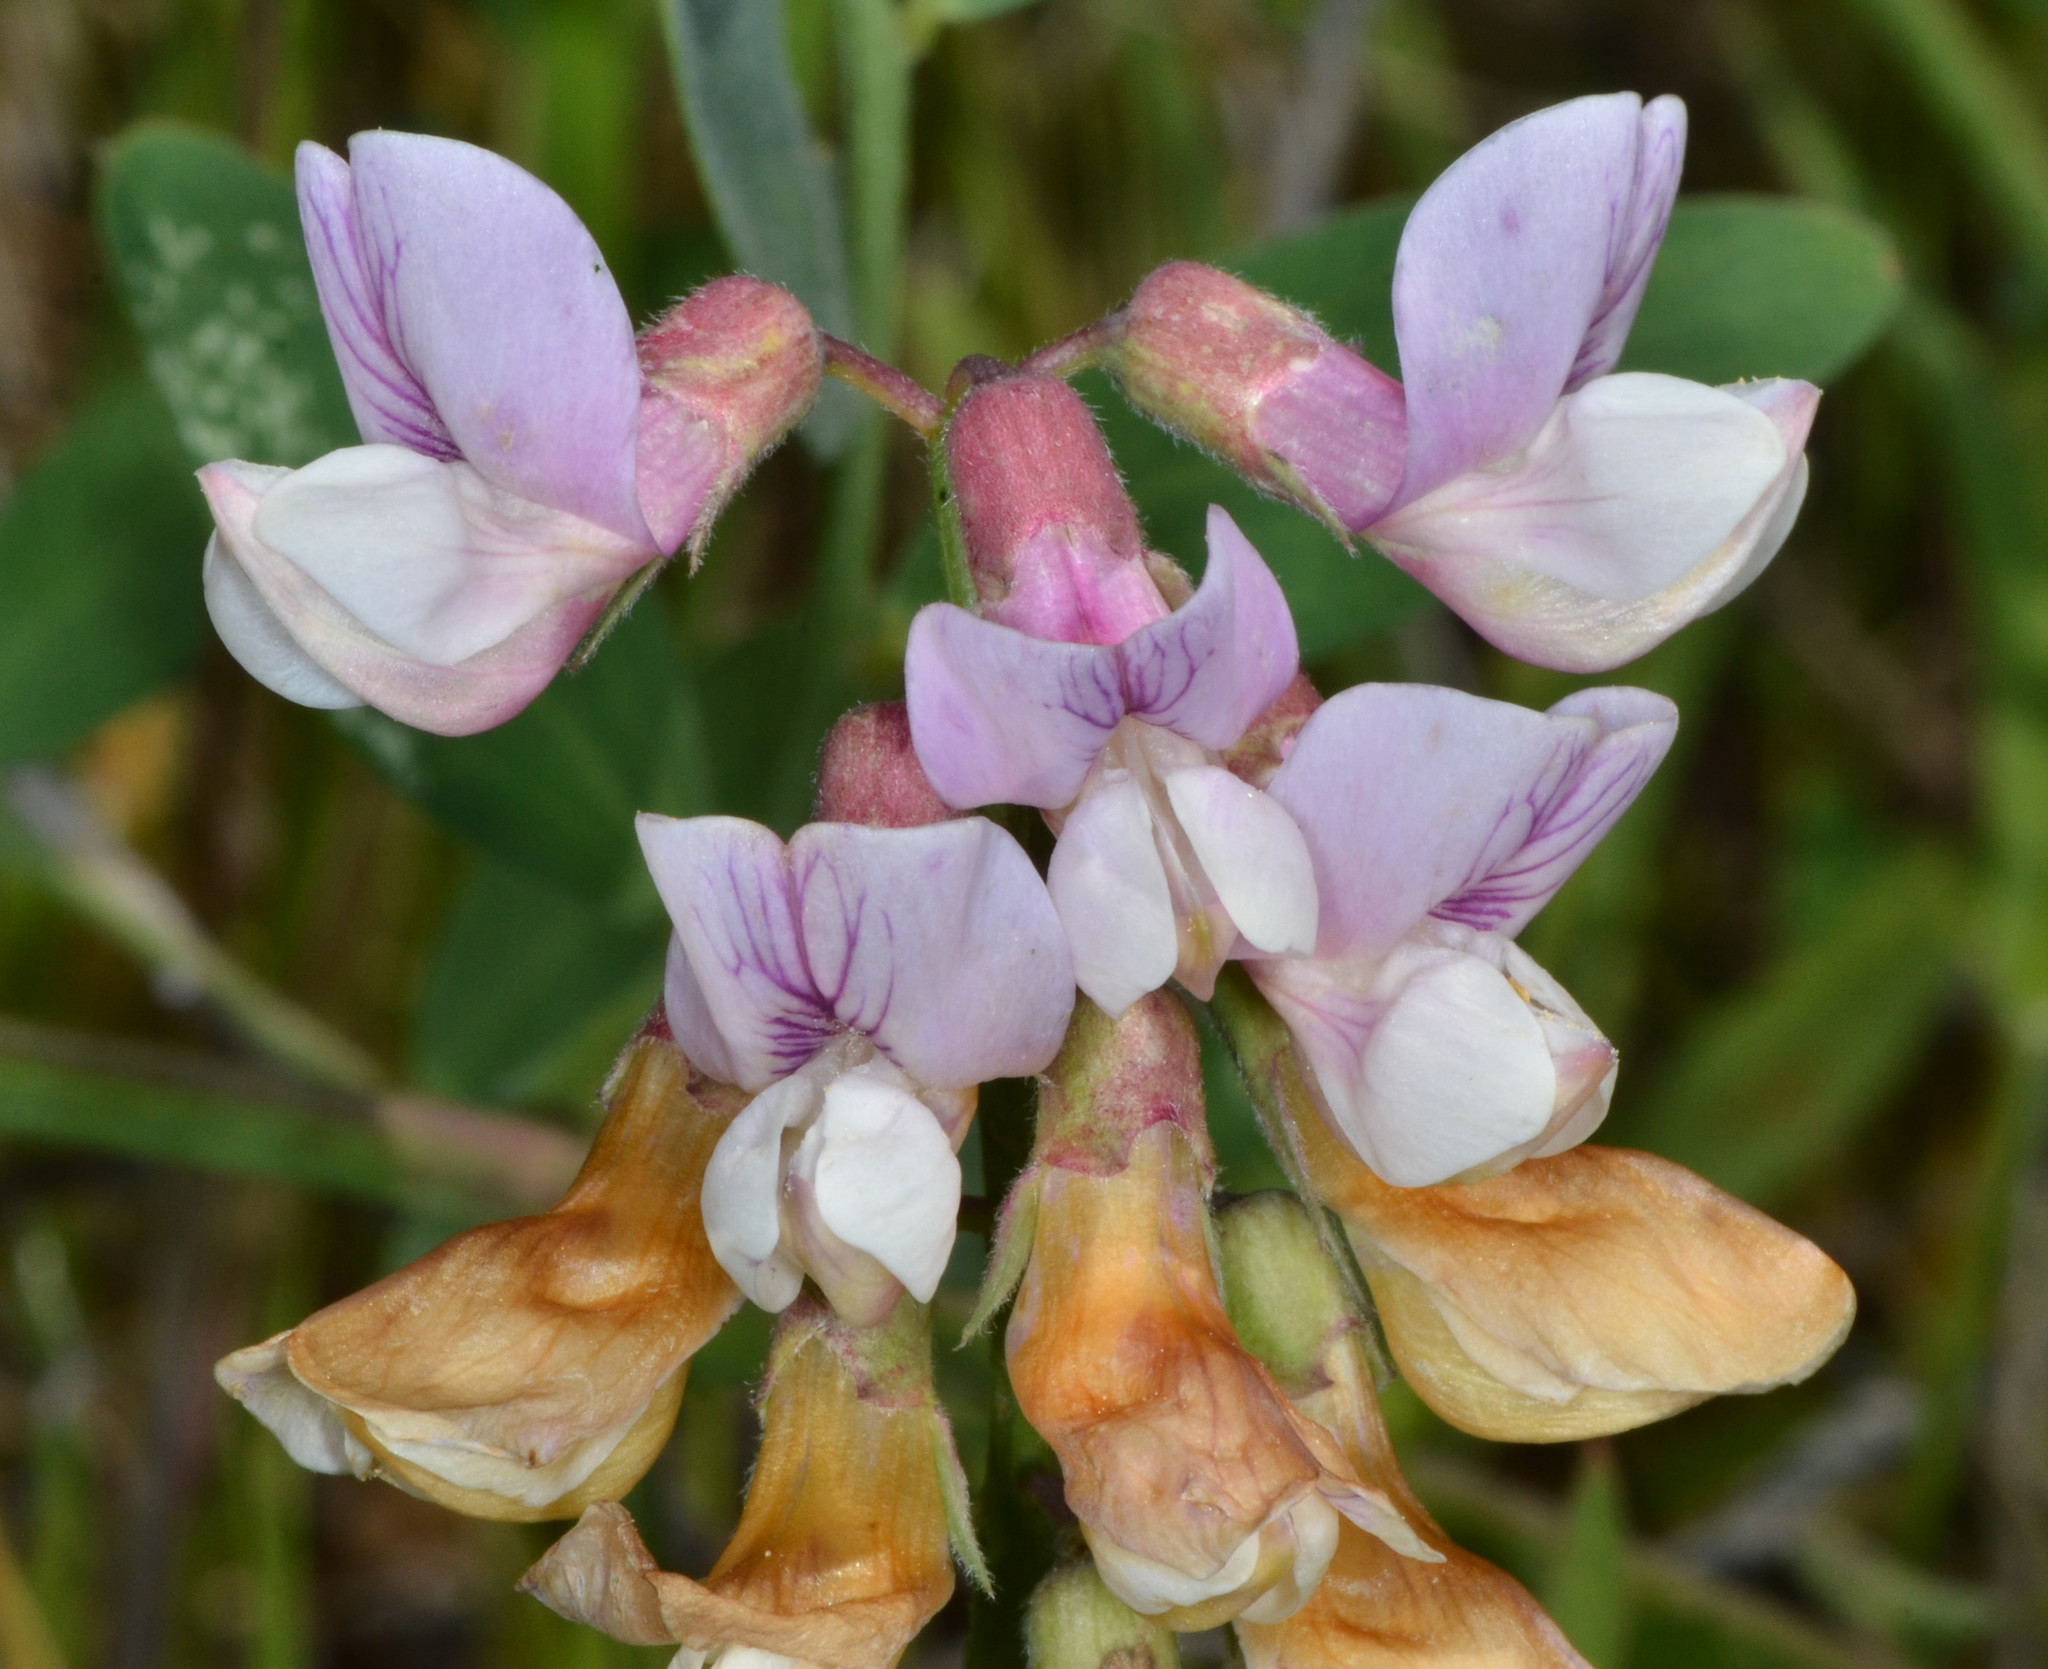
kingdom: Plantae
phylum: Tracheophyta
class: Magnoliopsida
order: Fabales
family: Fabaceae
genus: Lathyrus
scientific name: Lathyrus vestitus
